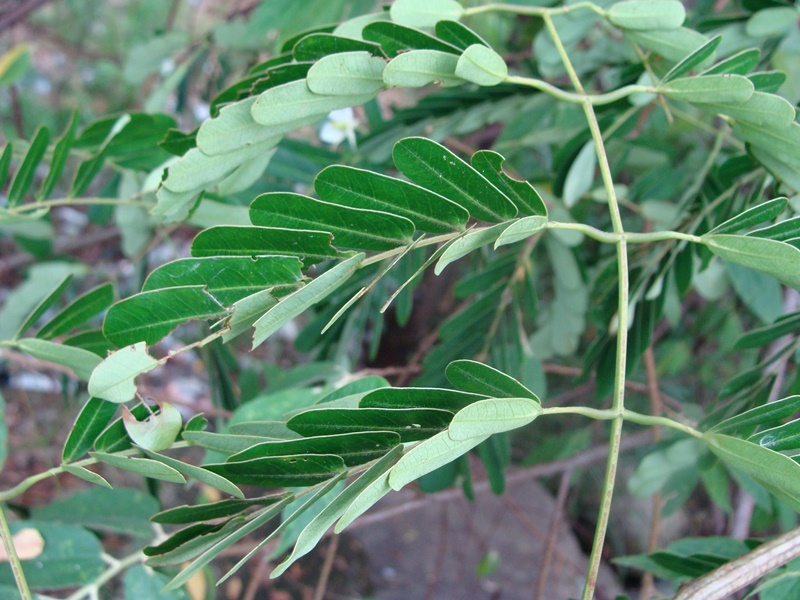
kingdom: Plantae
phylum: Tracheophyta
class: Magnoliopsida
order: Fabales
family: Fabaceae
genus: Entada
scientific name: Entada polystachya
